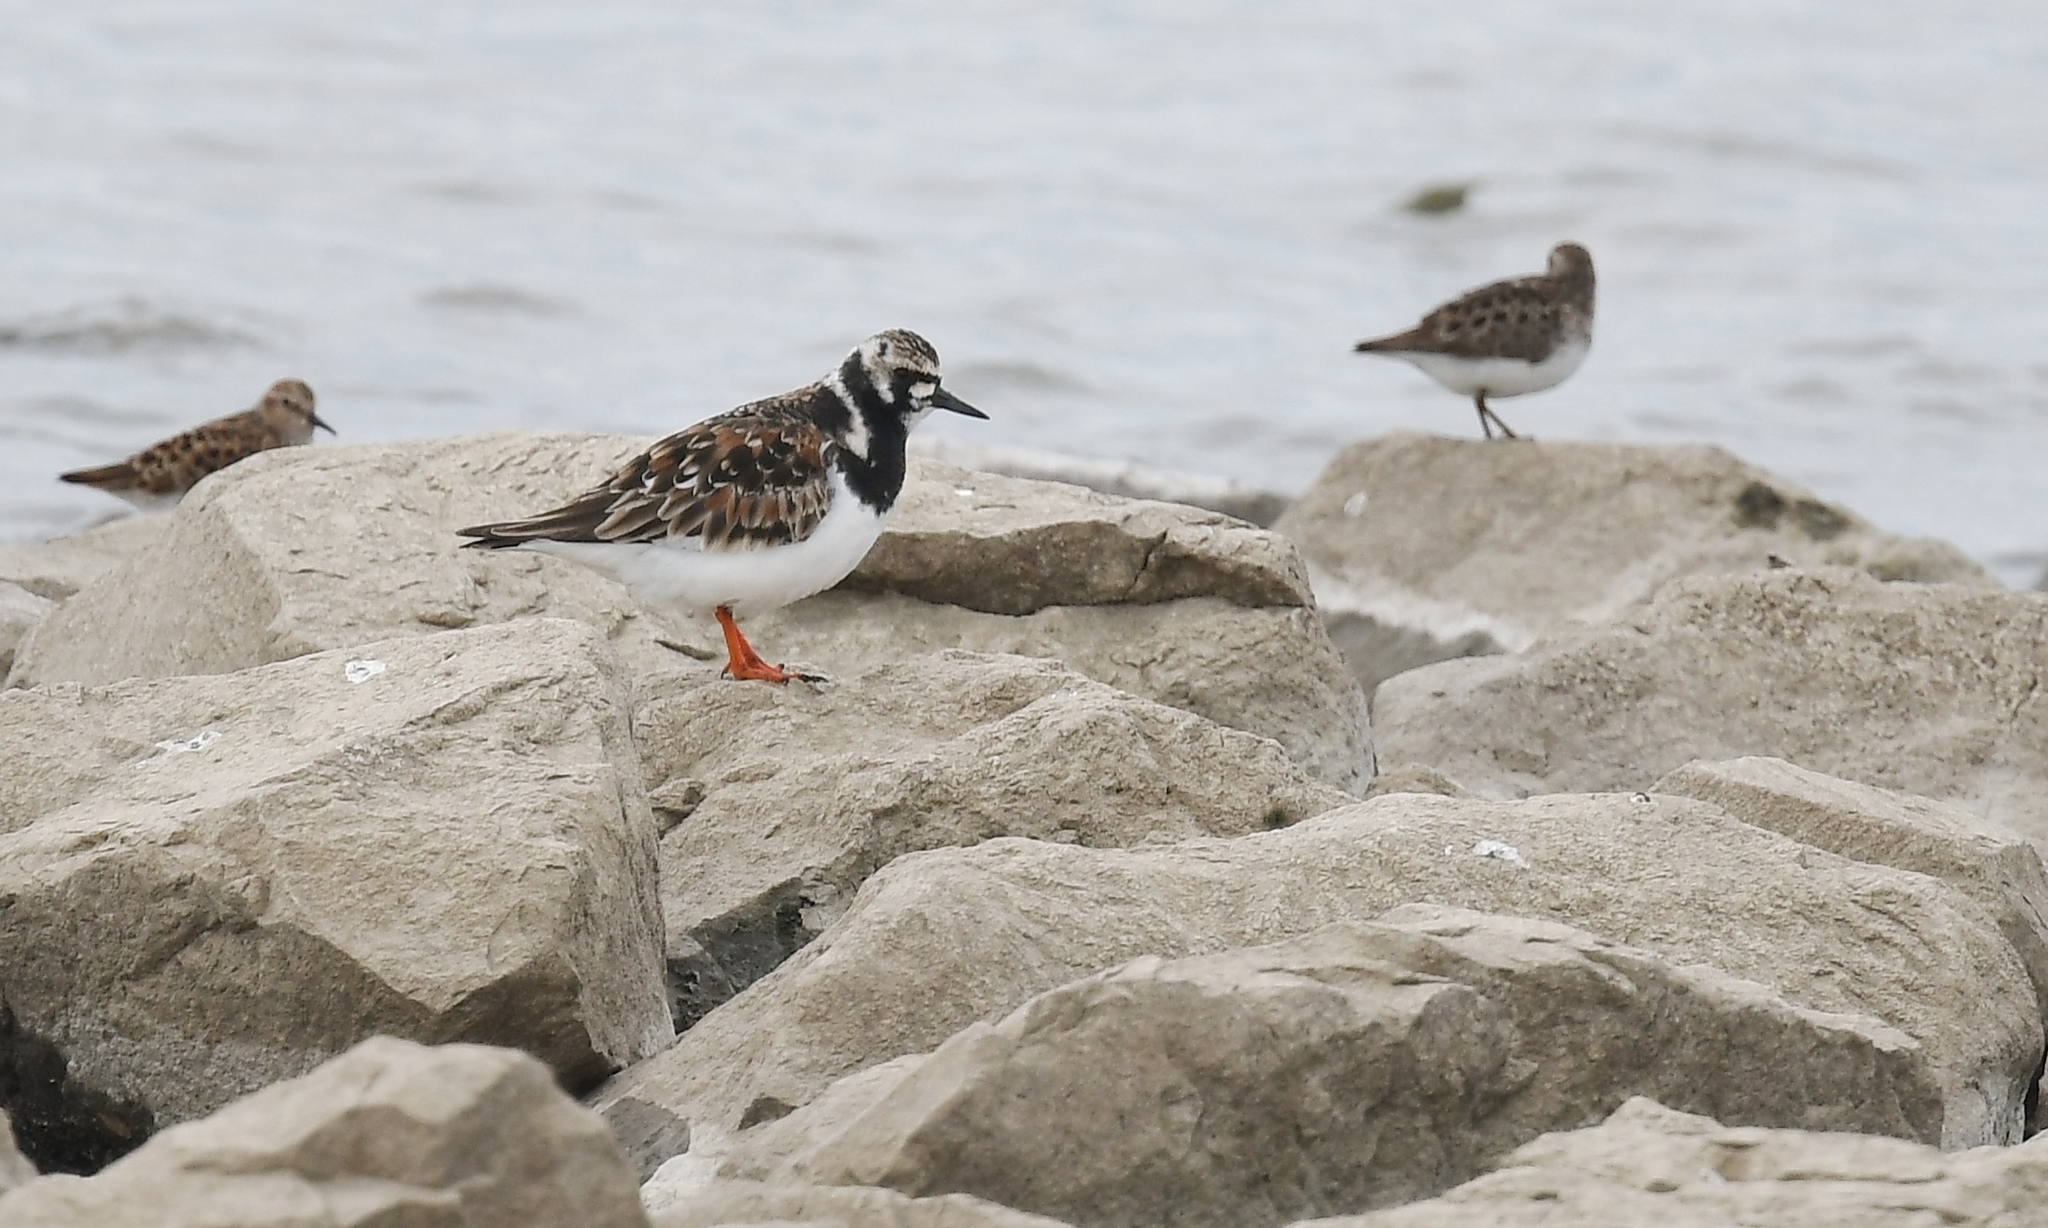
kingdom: Animalia
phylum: Chordata
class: Aves
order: Charadriiformes
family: Scolopacidae
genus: Arenaria
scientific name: Arenaria interpres
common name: Ruddy turnstone
